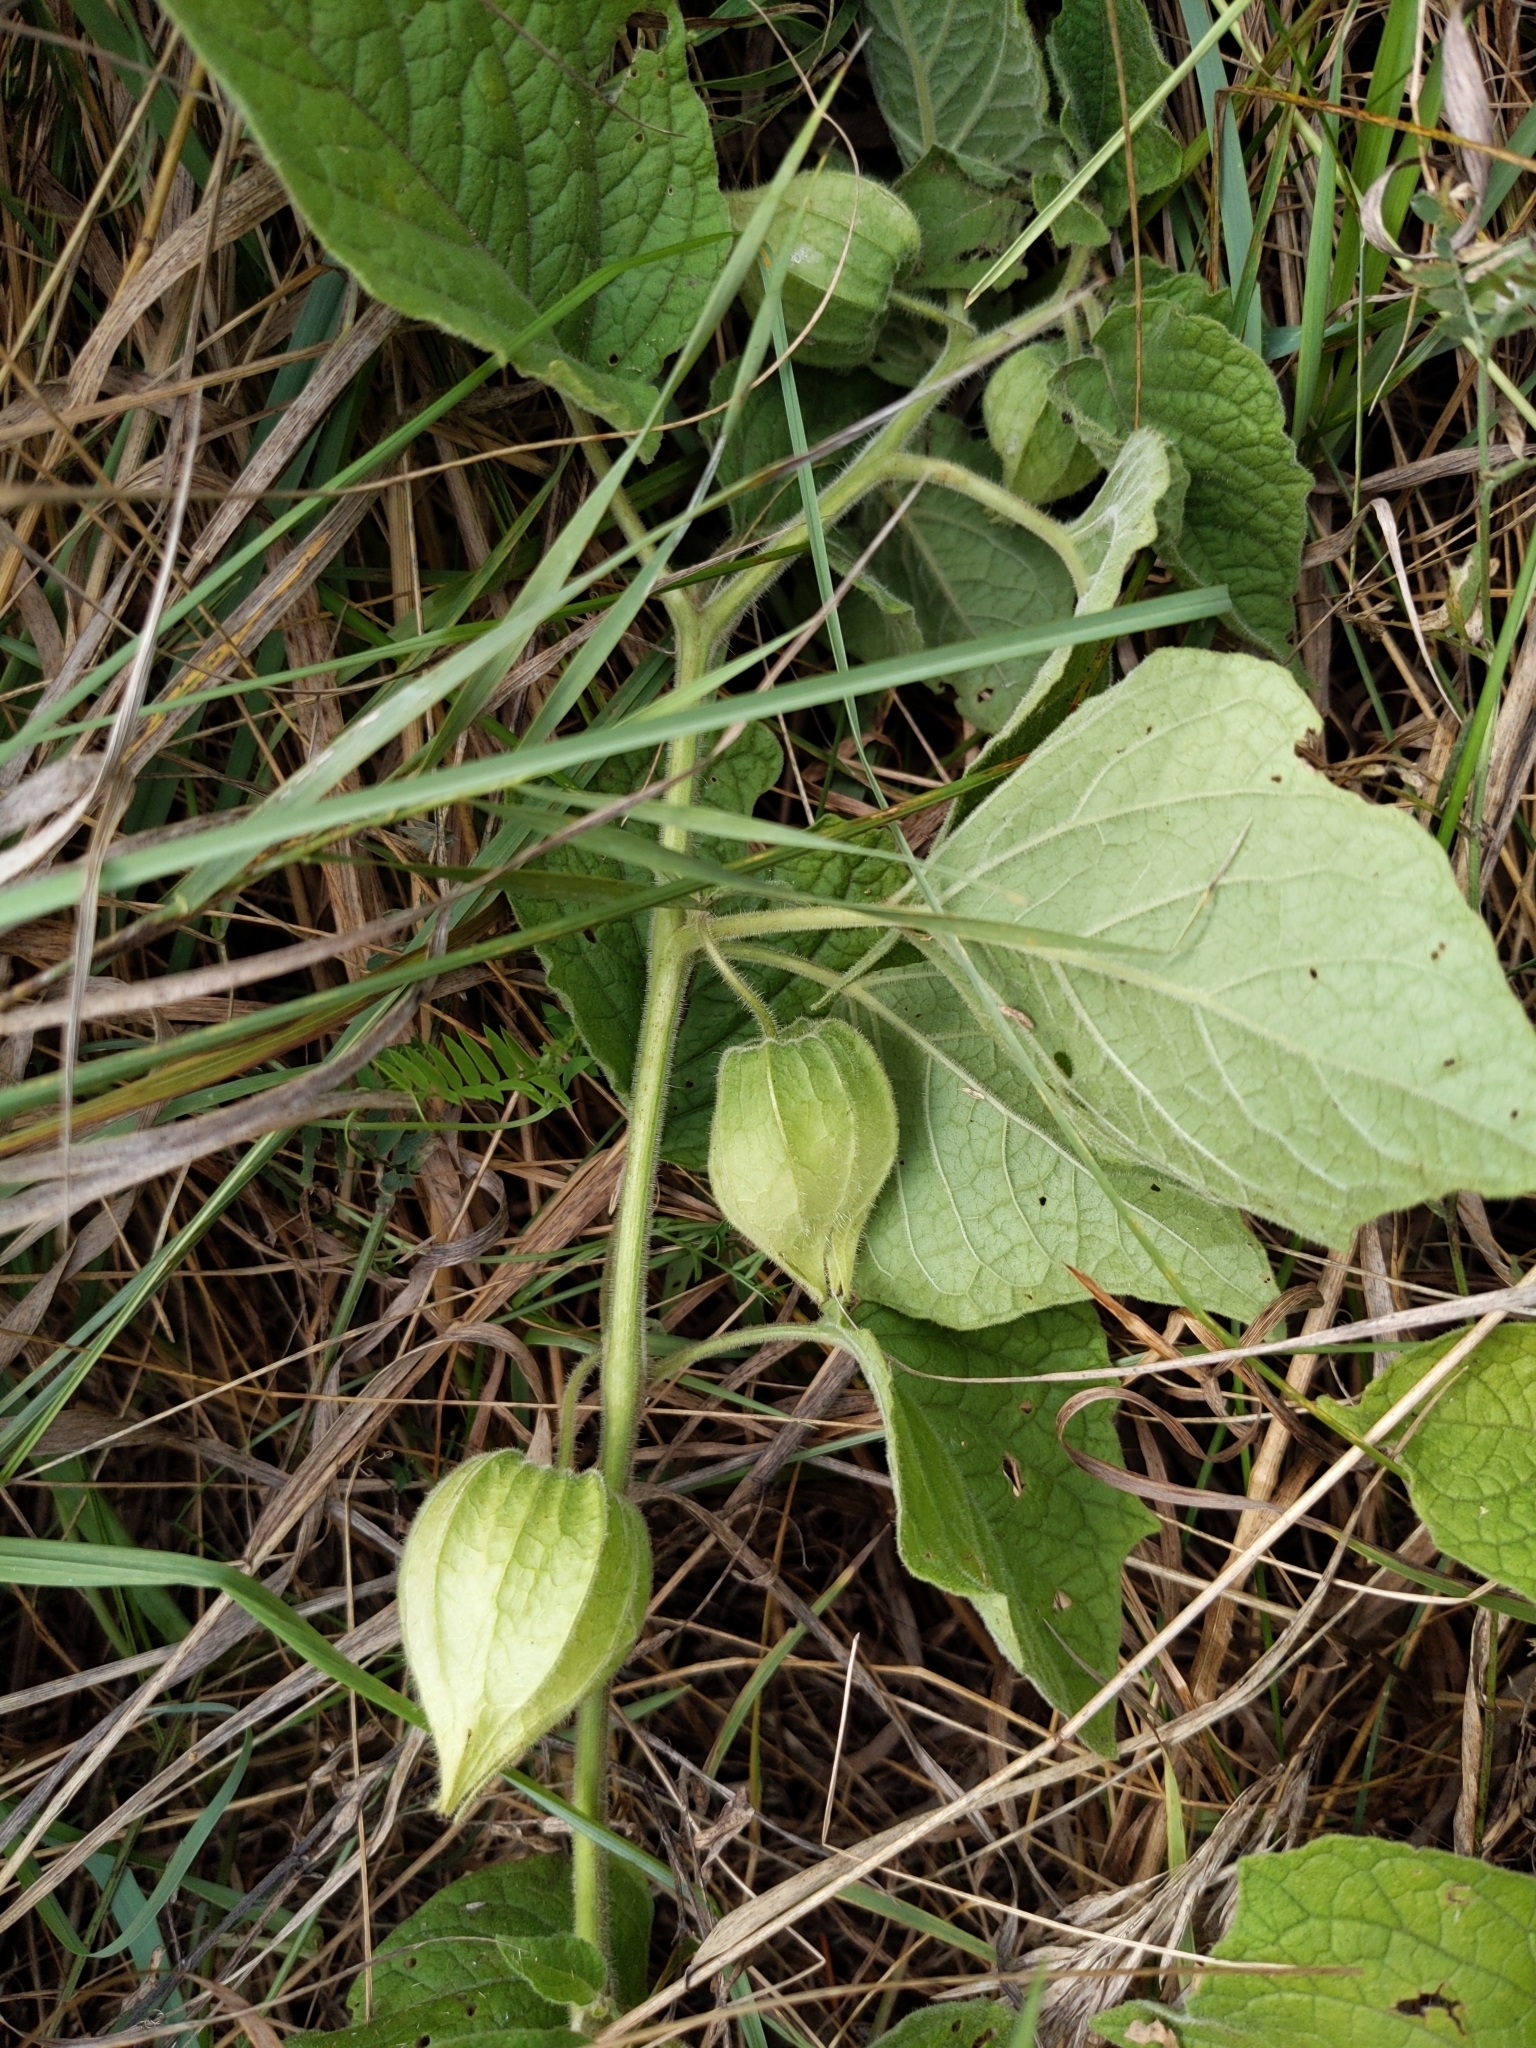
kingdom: Plantae
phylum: Tracheophyta
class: Magnoliopsida
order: Solanales
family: Solanaceae
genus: Physalis
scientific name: Physalis heterophylla
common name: Clammy ground-cherry
